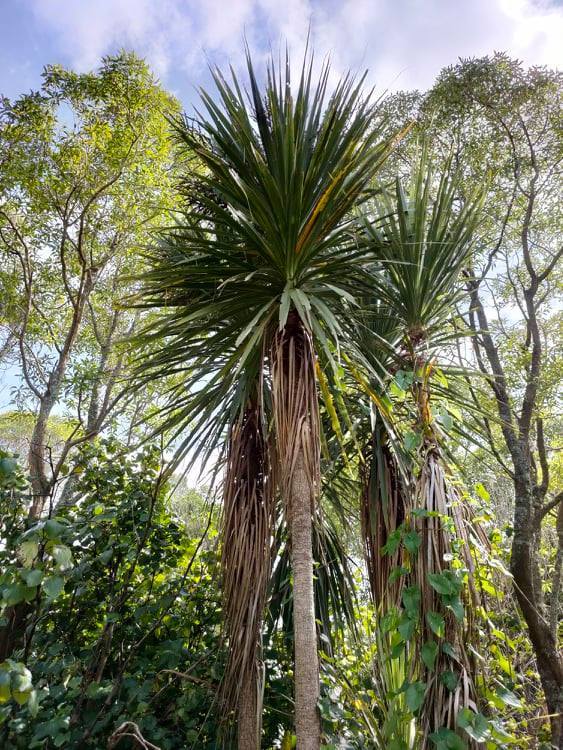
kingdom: Plantae
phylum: Tracheophyta
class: Liliopsida
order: Asparagales
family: Asparagaceae
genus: Cordyline
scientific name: Cordyline australis
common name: Cabbage-palm
